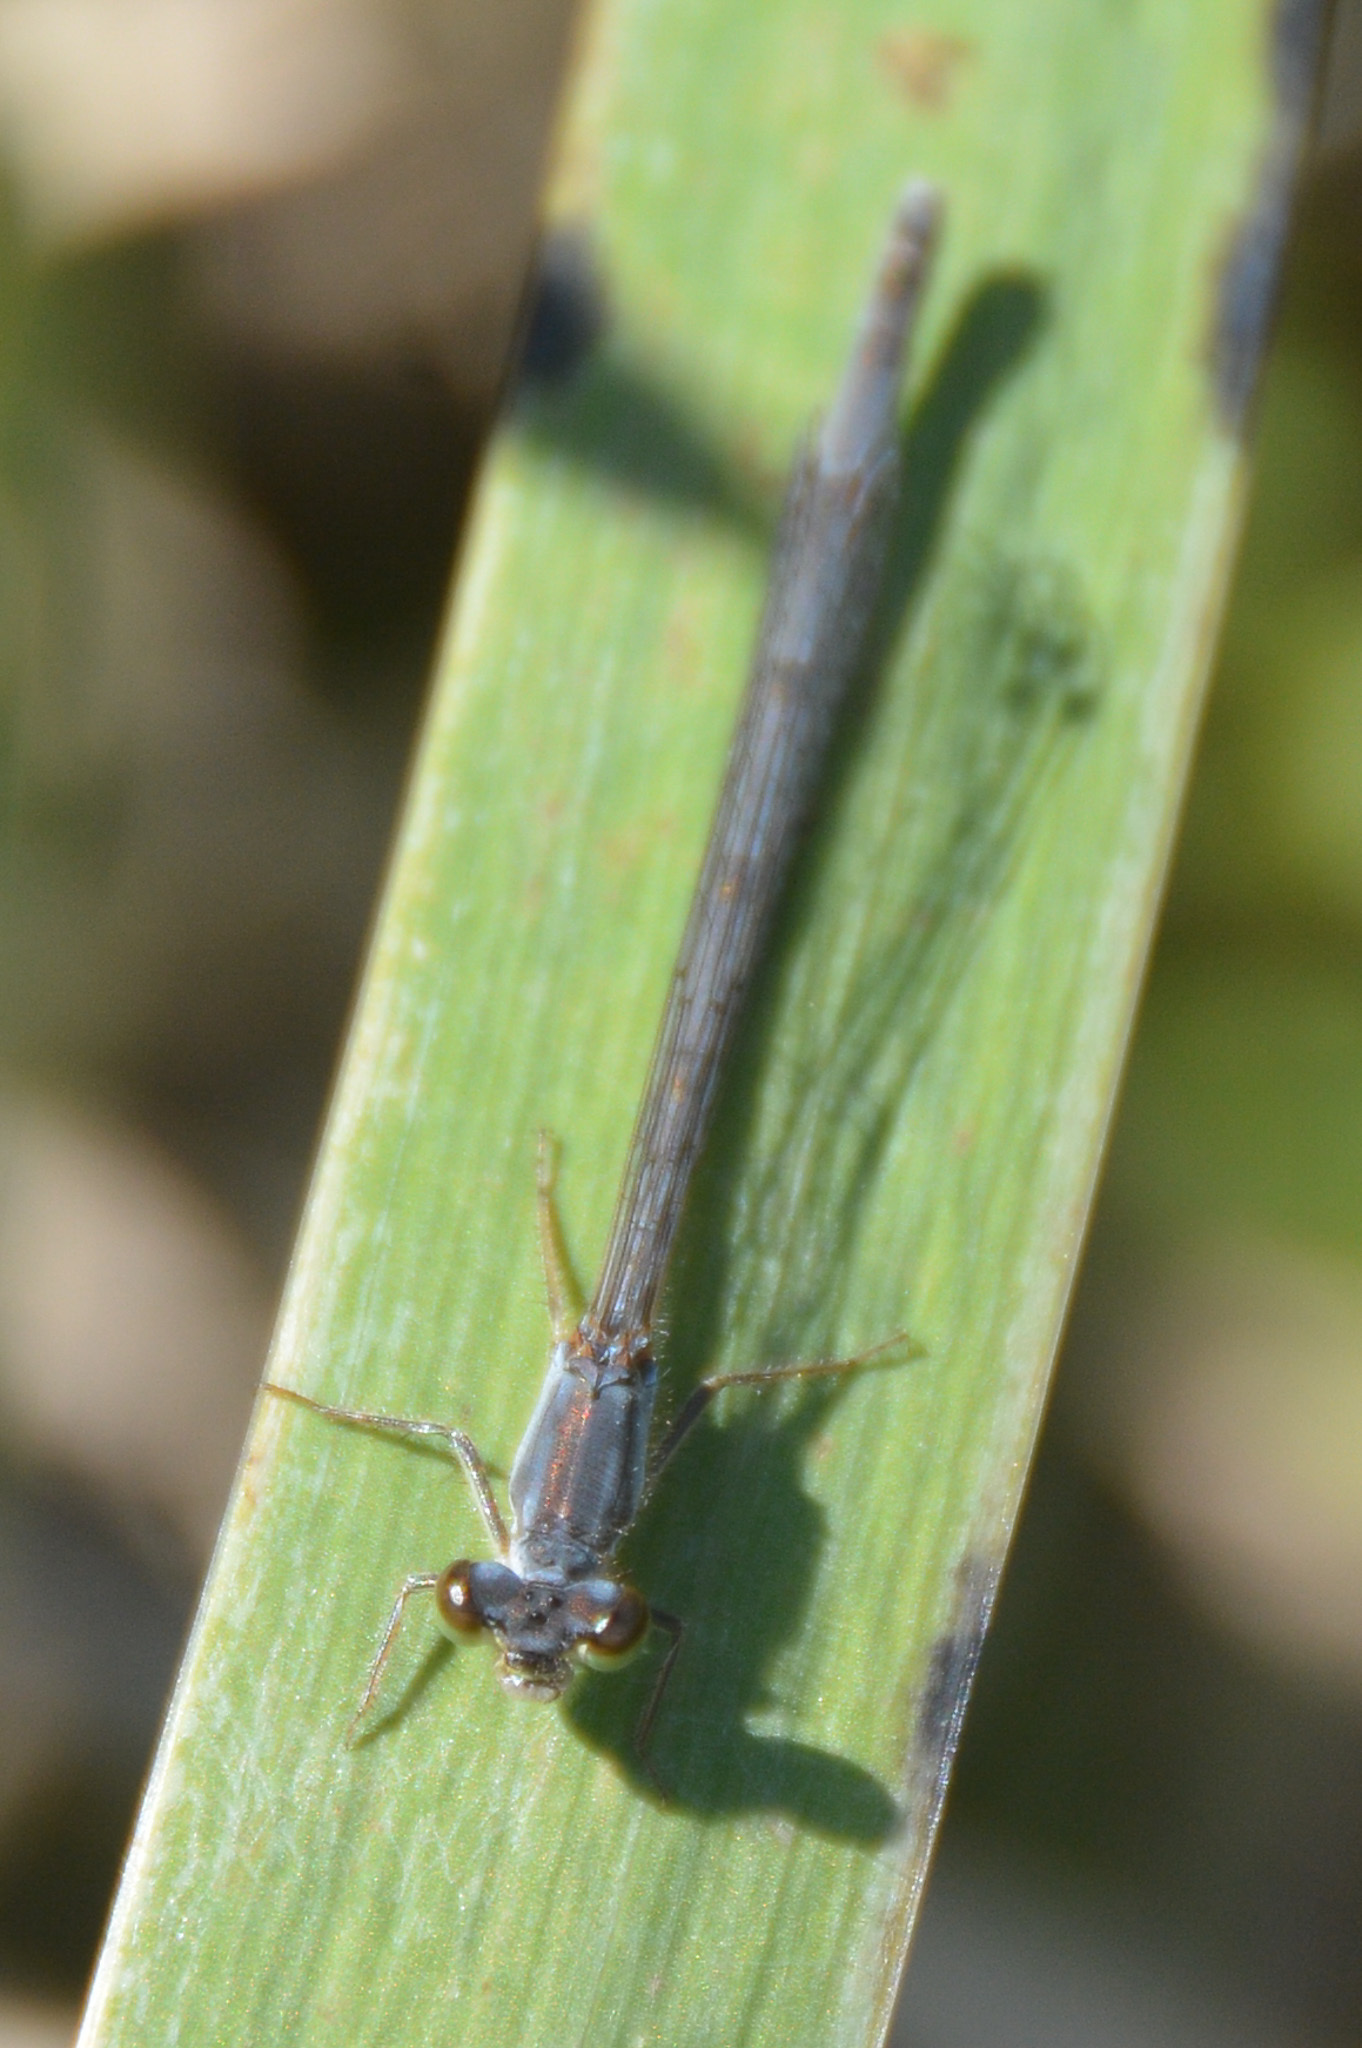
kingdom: Animalia
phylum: Arthropoda
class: Insecta
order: Odonata
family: Coenagrionidae
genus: Ischnura
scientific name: Ischnura posita
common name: Fragile forktail
